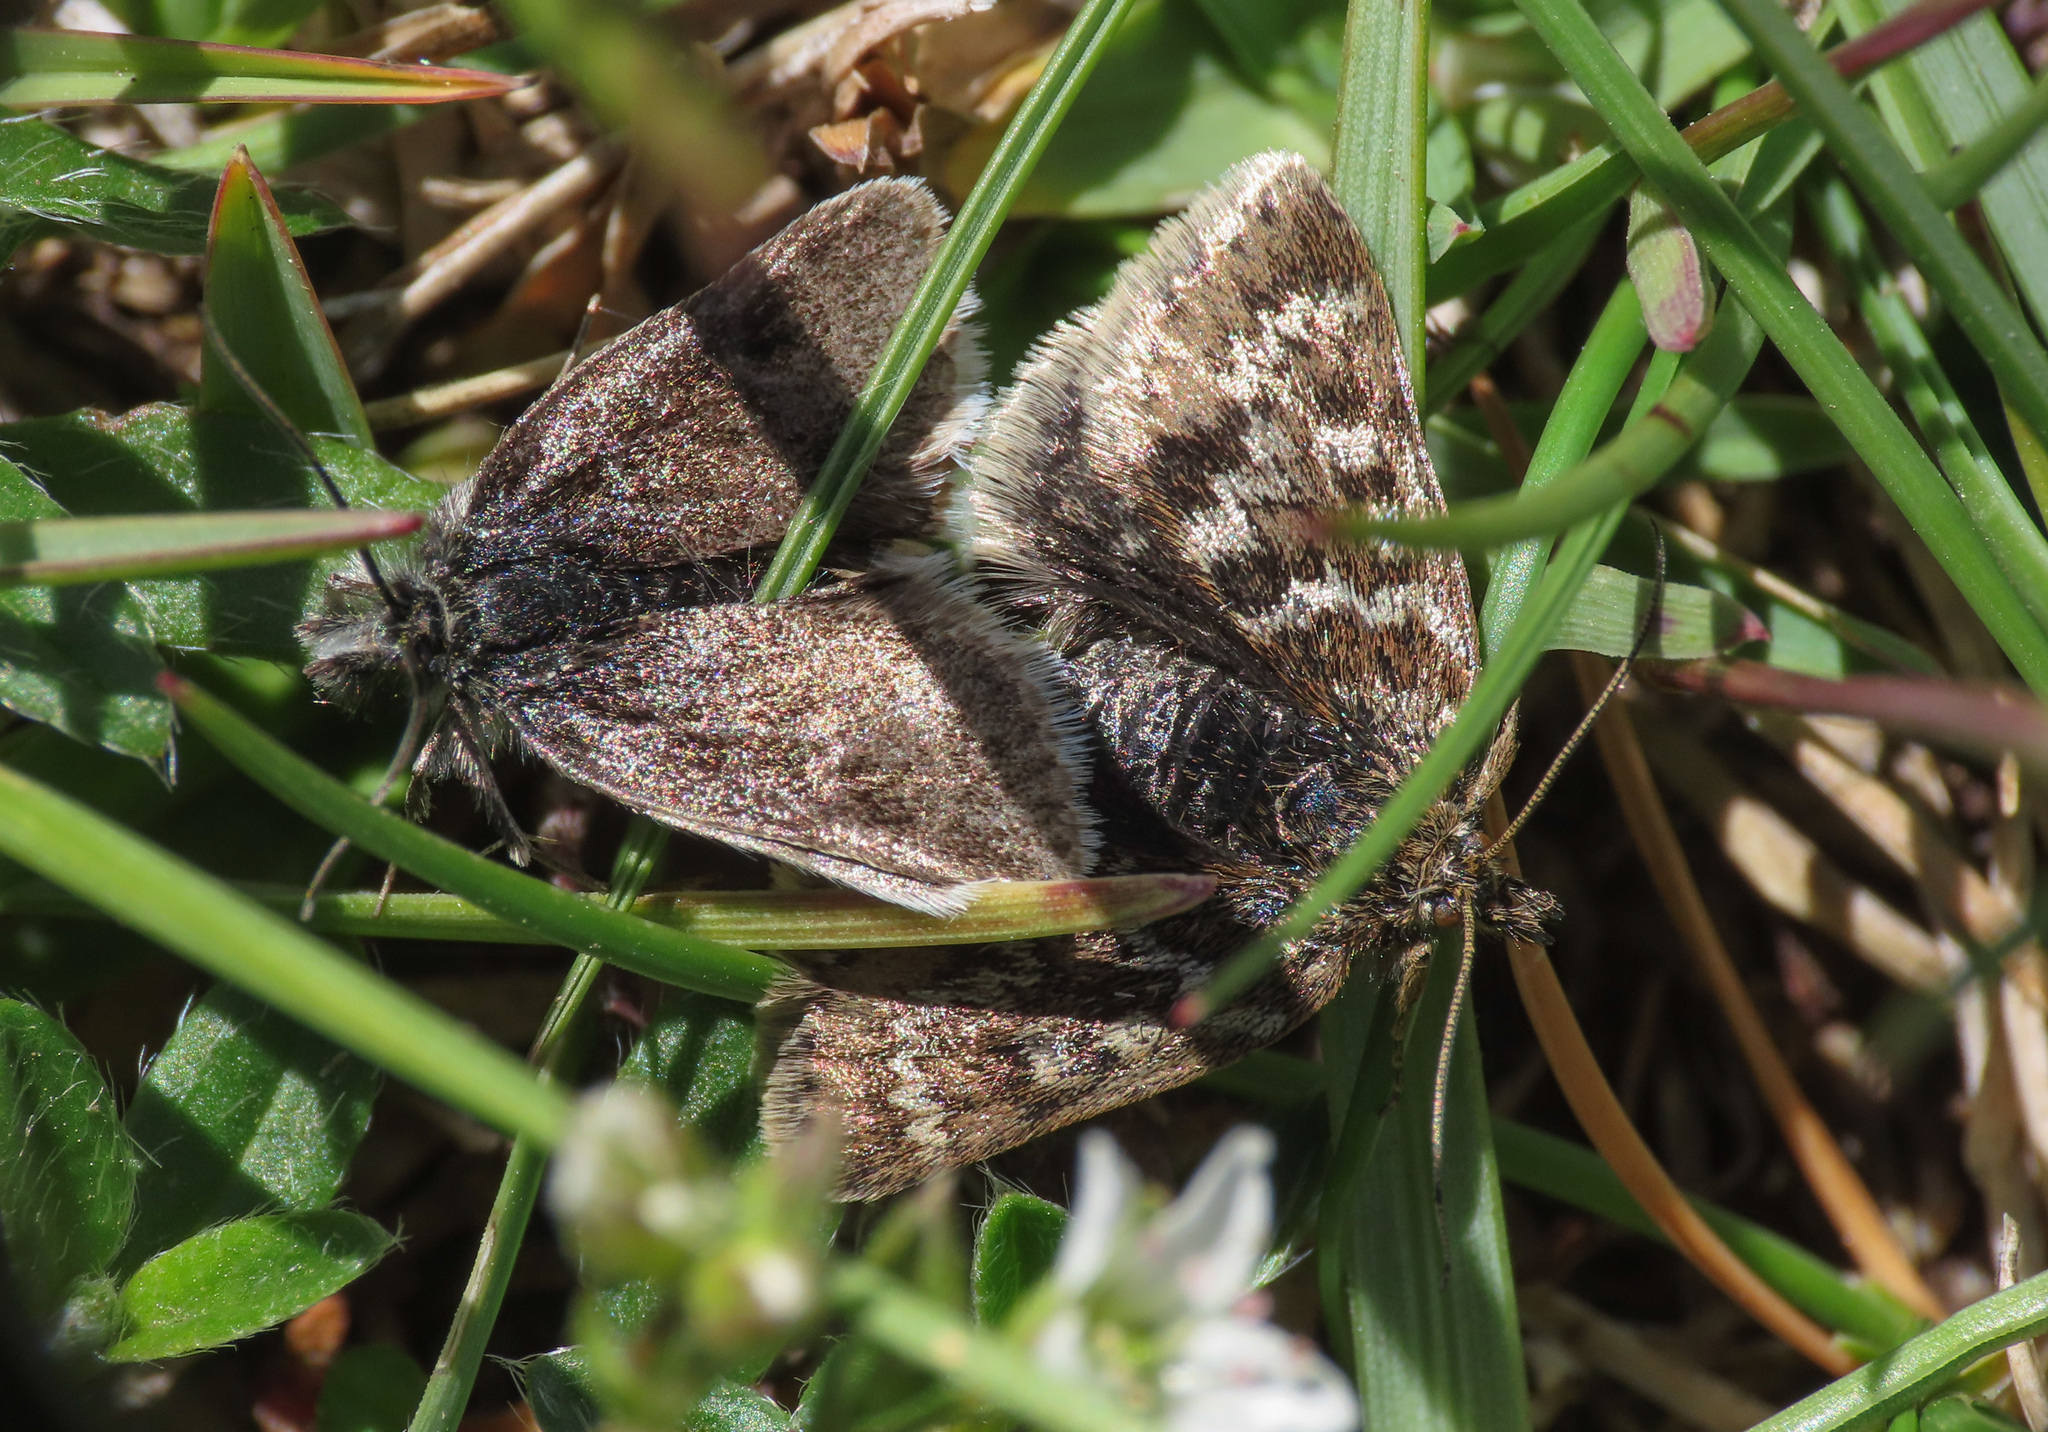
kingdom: Animalia
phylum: Arthropoda
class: Insecta
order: Lepidoptera
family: Crambidae
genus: Metaxmeste
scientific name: Metaxmeste schrankiana
